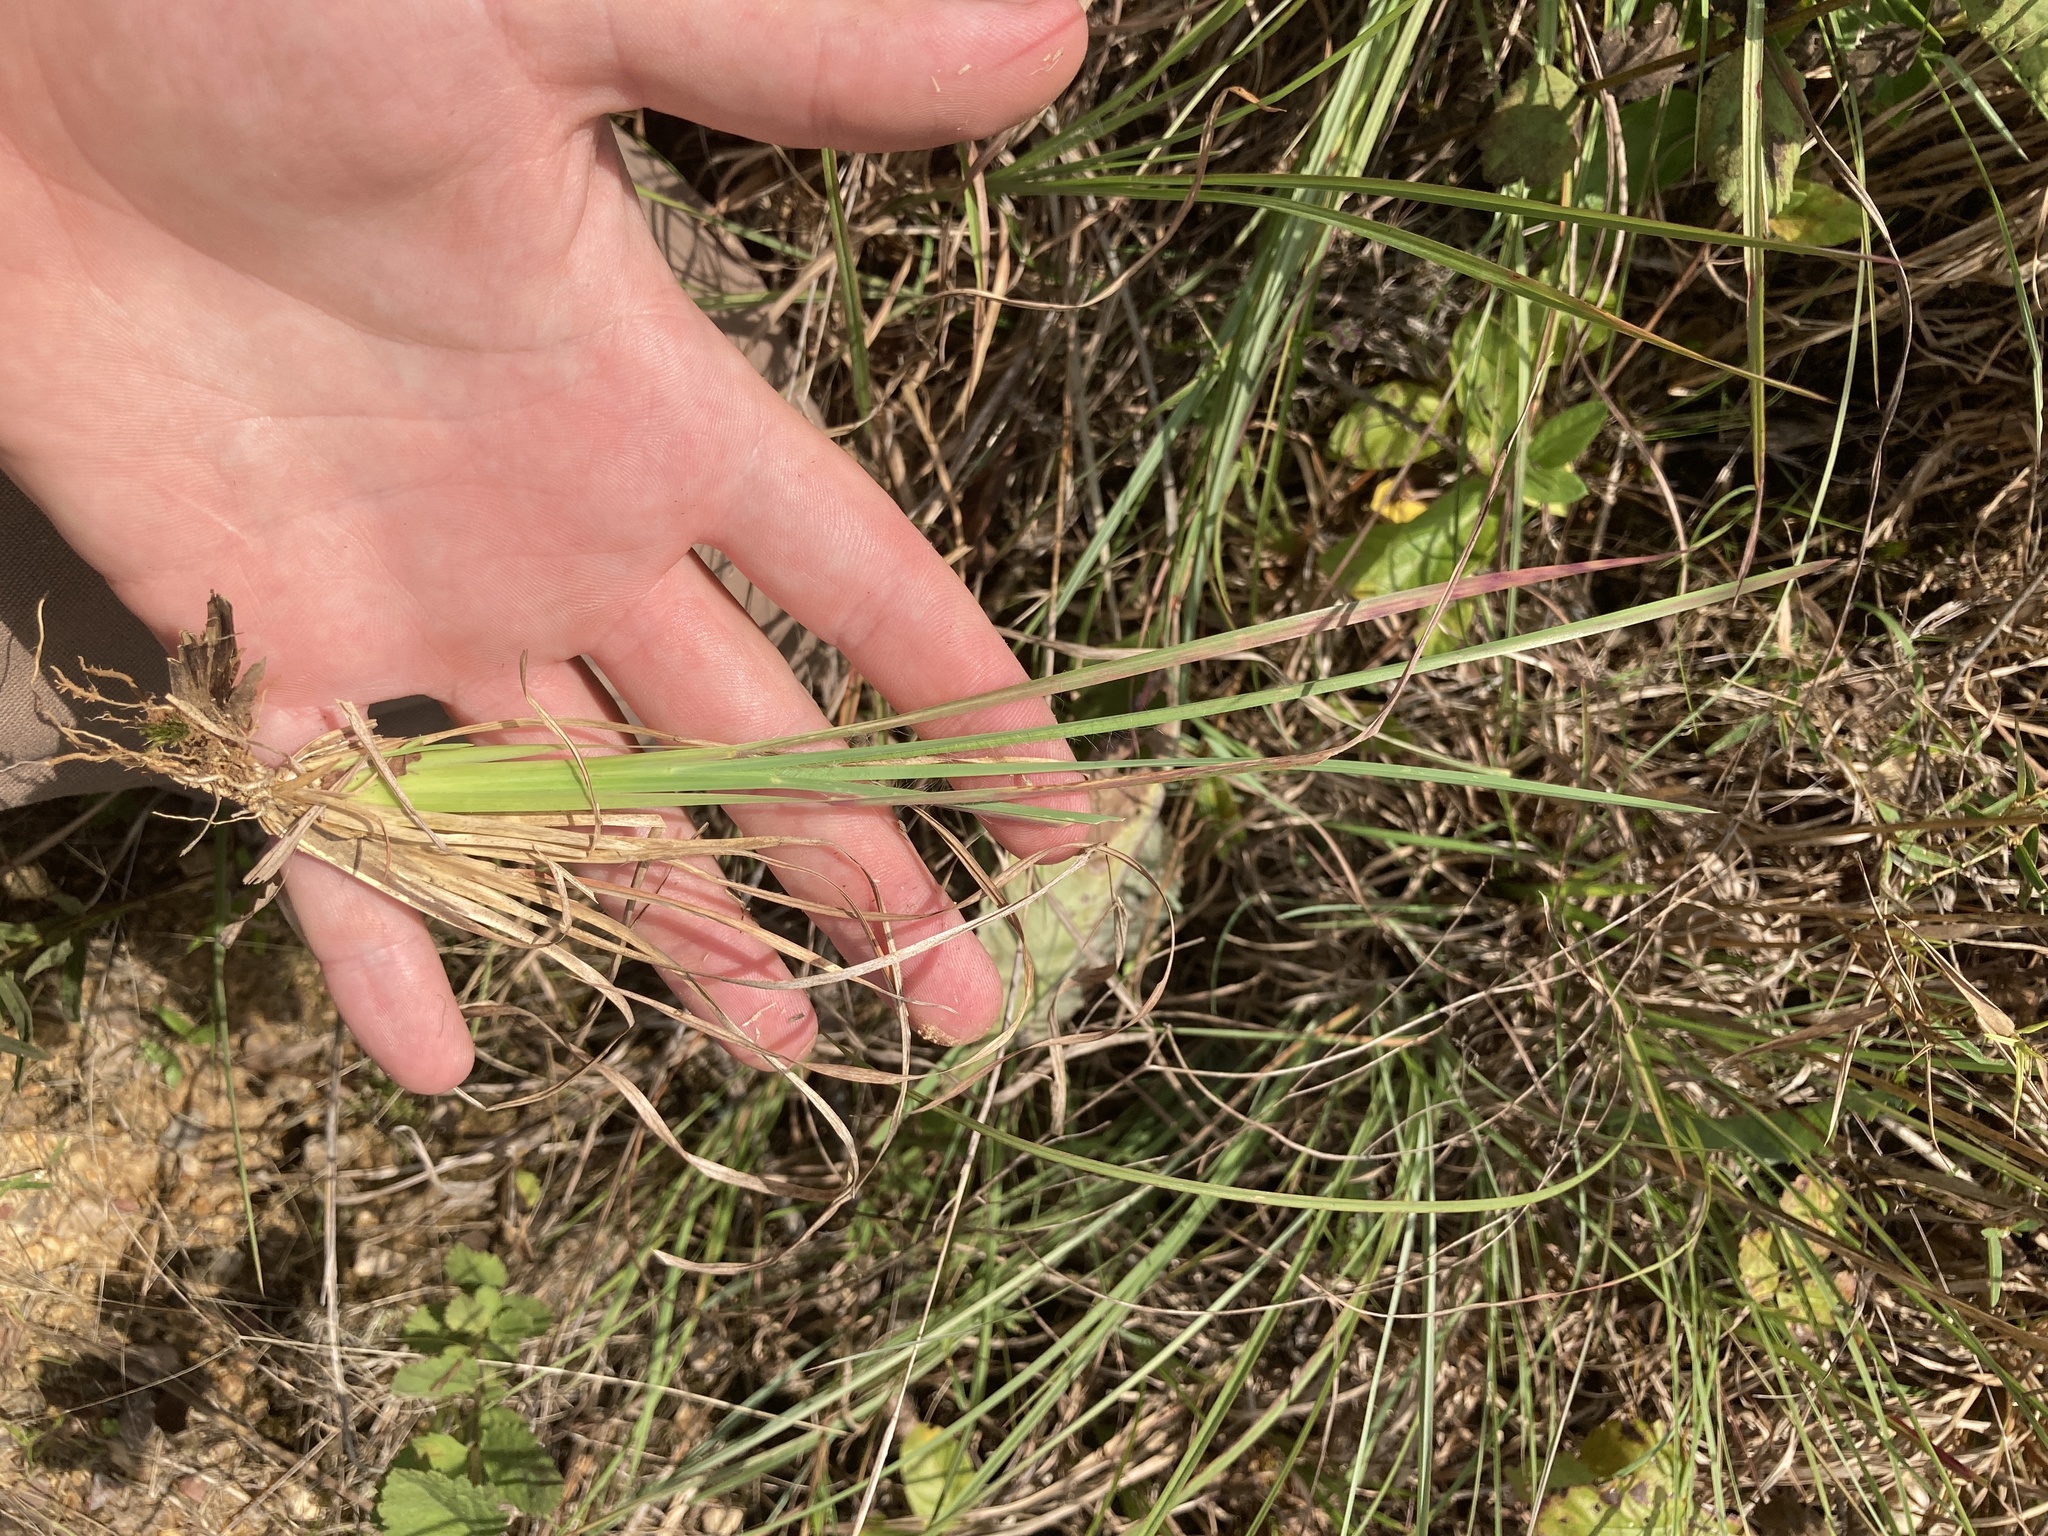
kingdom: Plantae
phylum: Tracheophyta
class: Liliopsida
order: Poales
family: Poaceae
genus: Andropogon
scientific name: Andropogon virginicus
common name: Broomsedge bluestem
